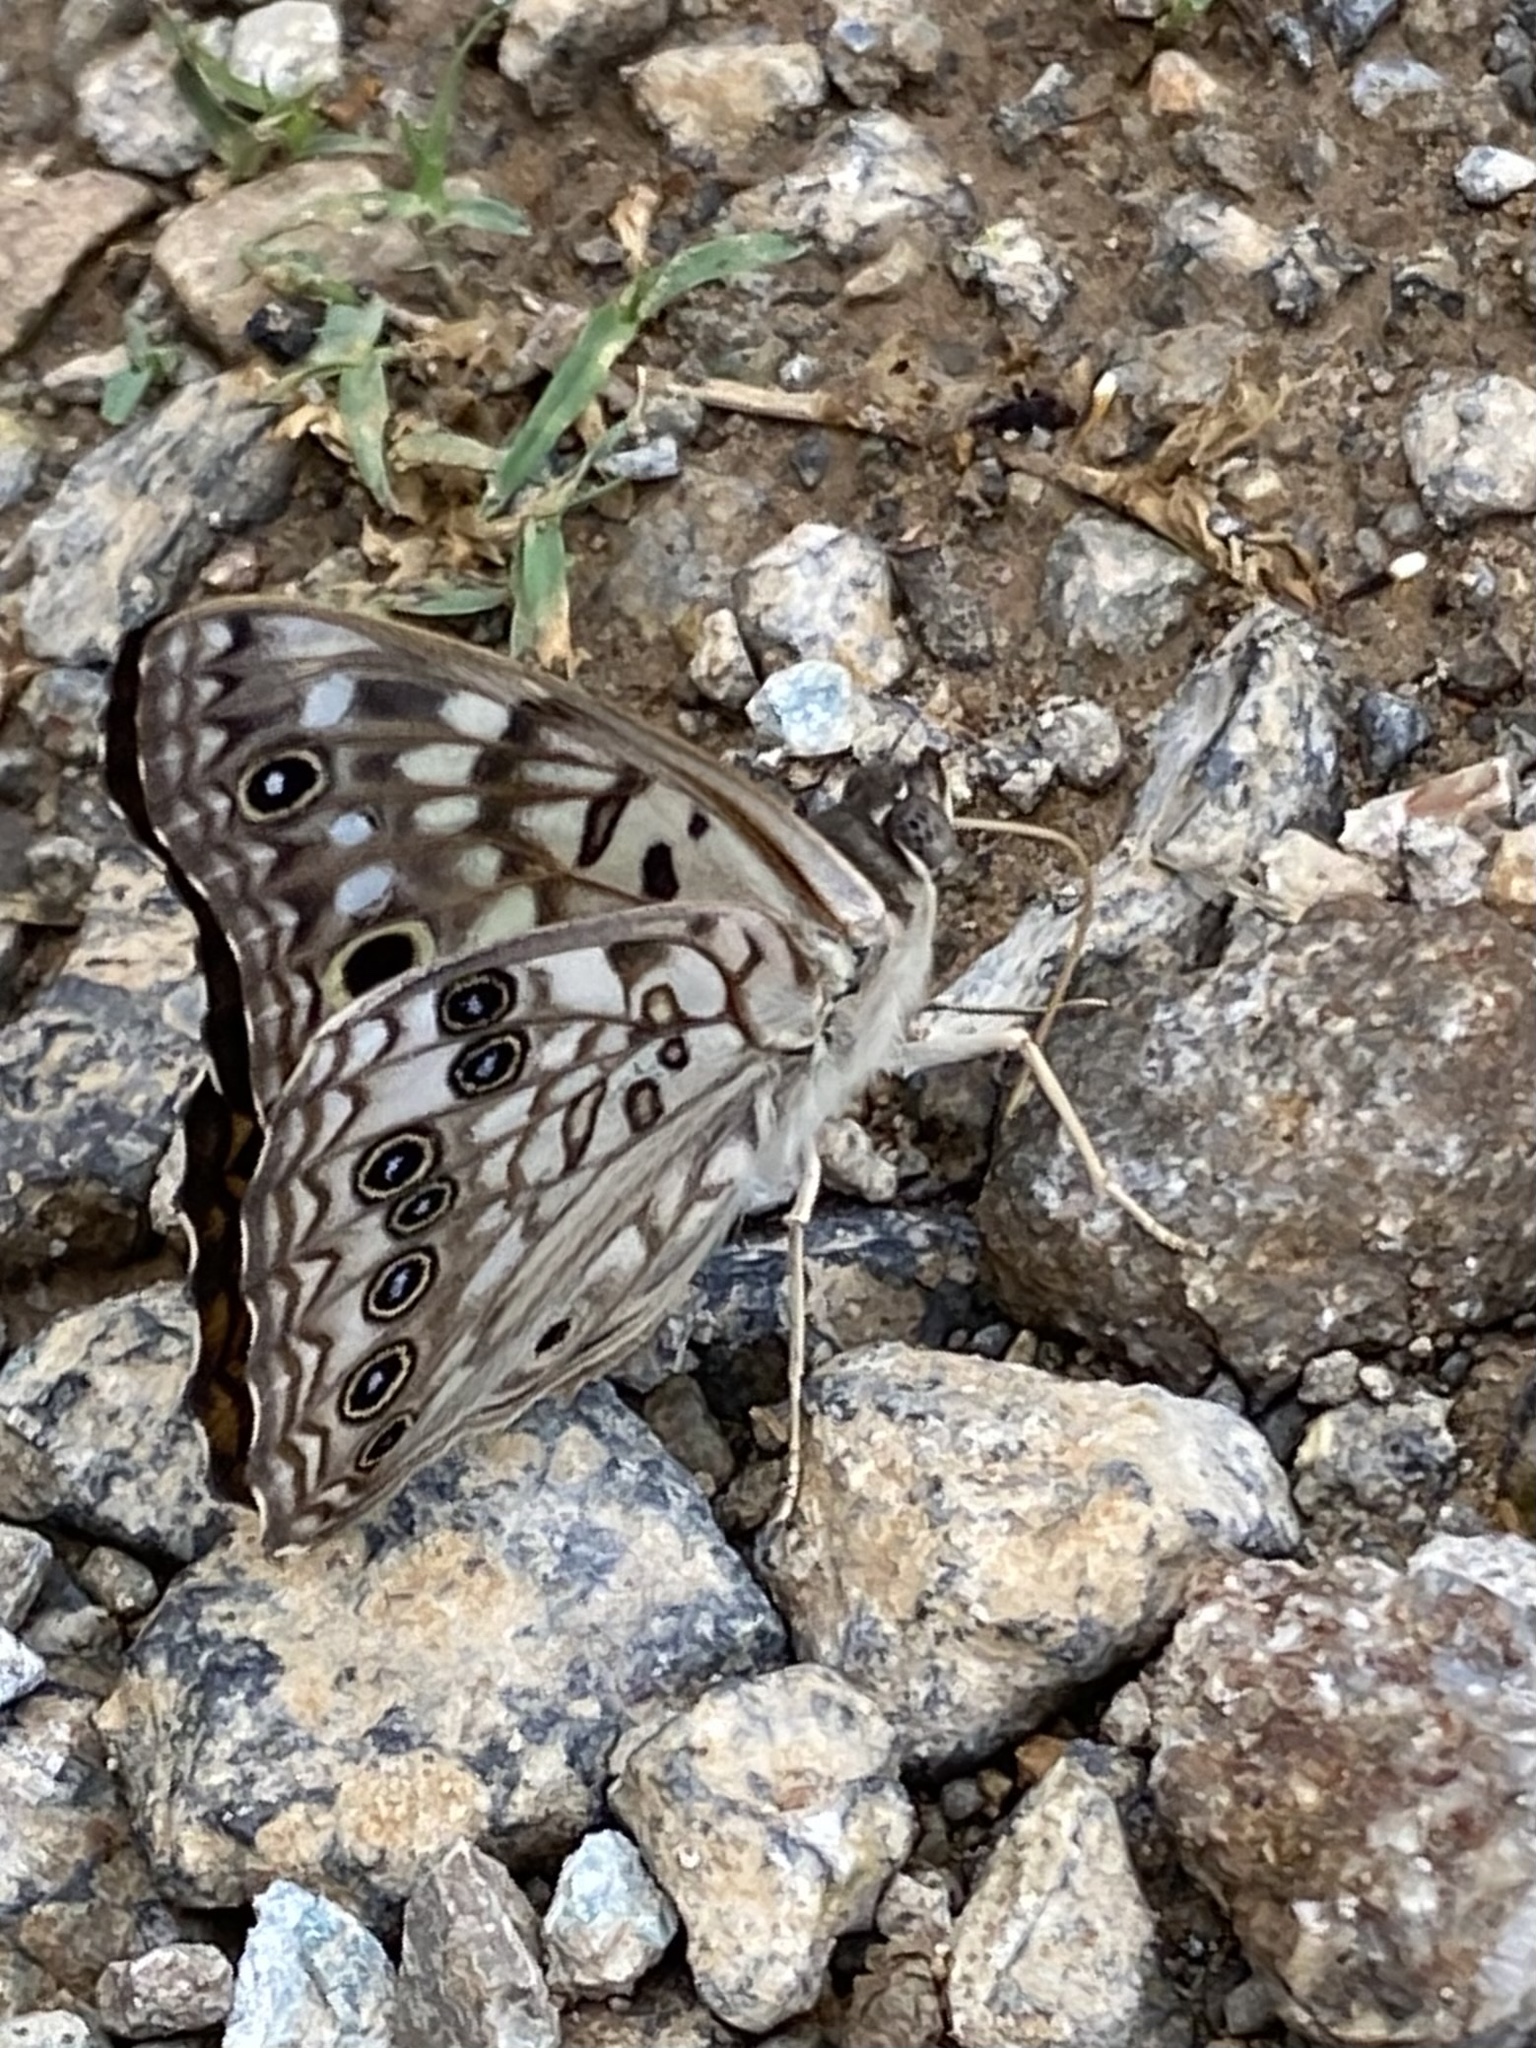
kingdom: Animalia
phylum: Arthropoda
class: Insecta
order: Lepidoptera
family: Nymphalidae
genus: Asterocampa
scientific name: Asterocampa celtis
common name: Hackberry emperor
